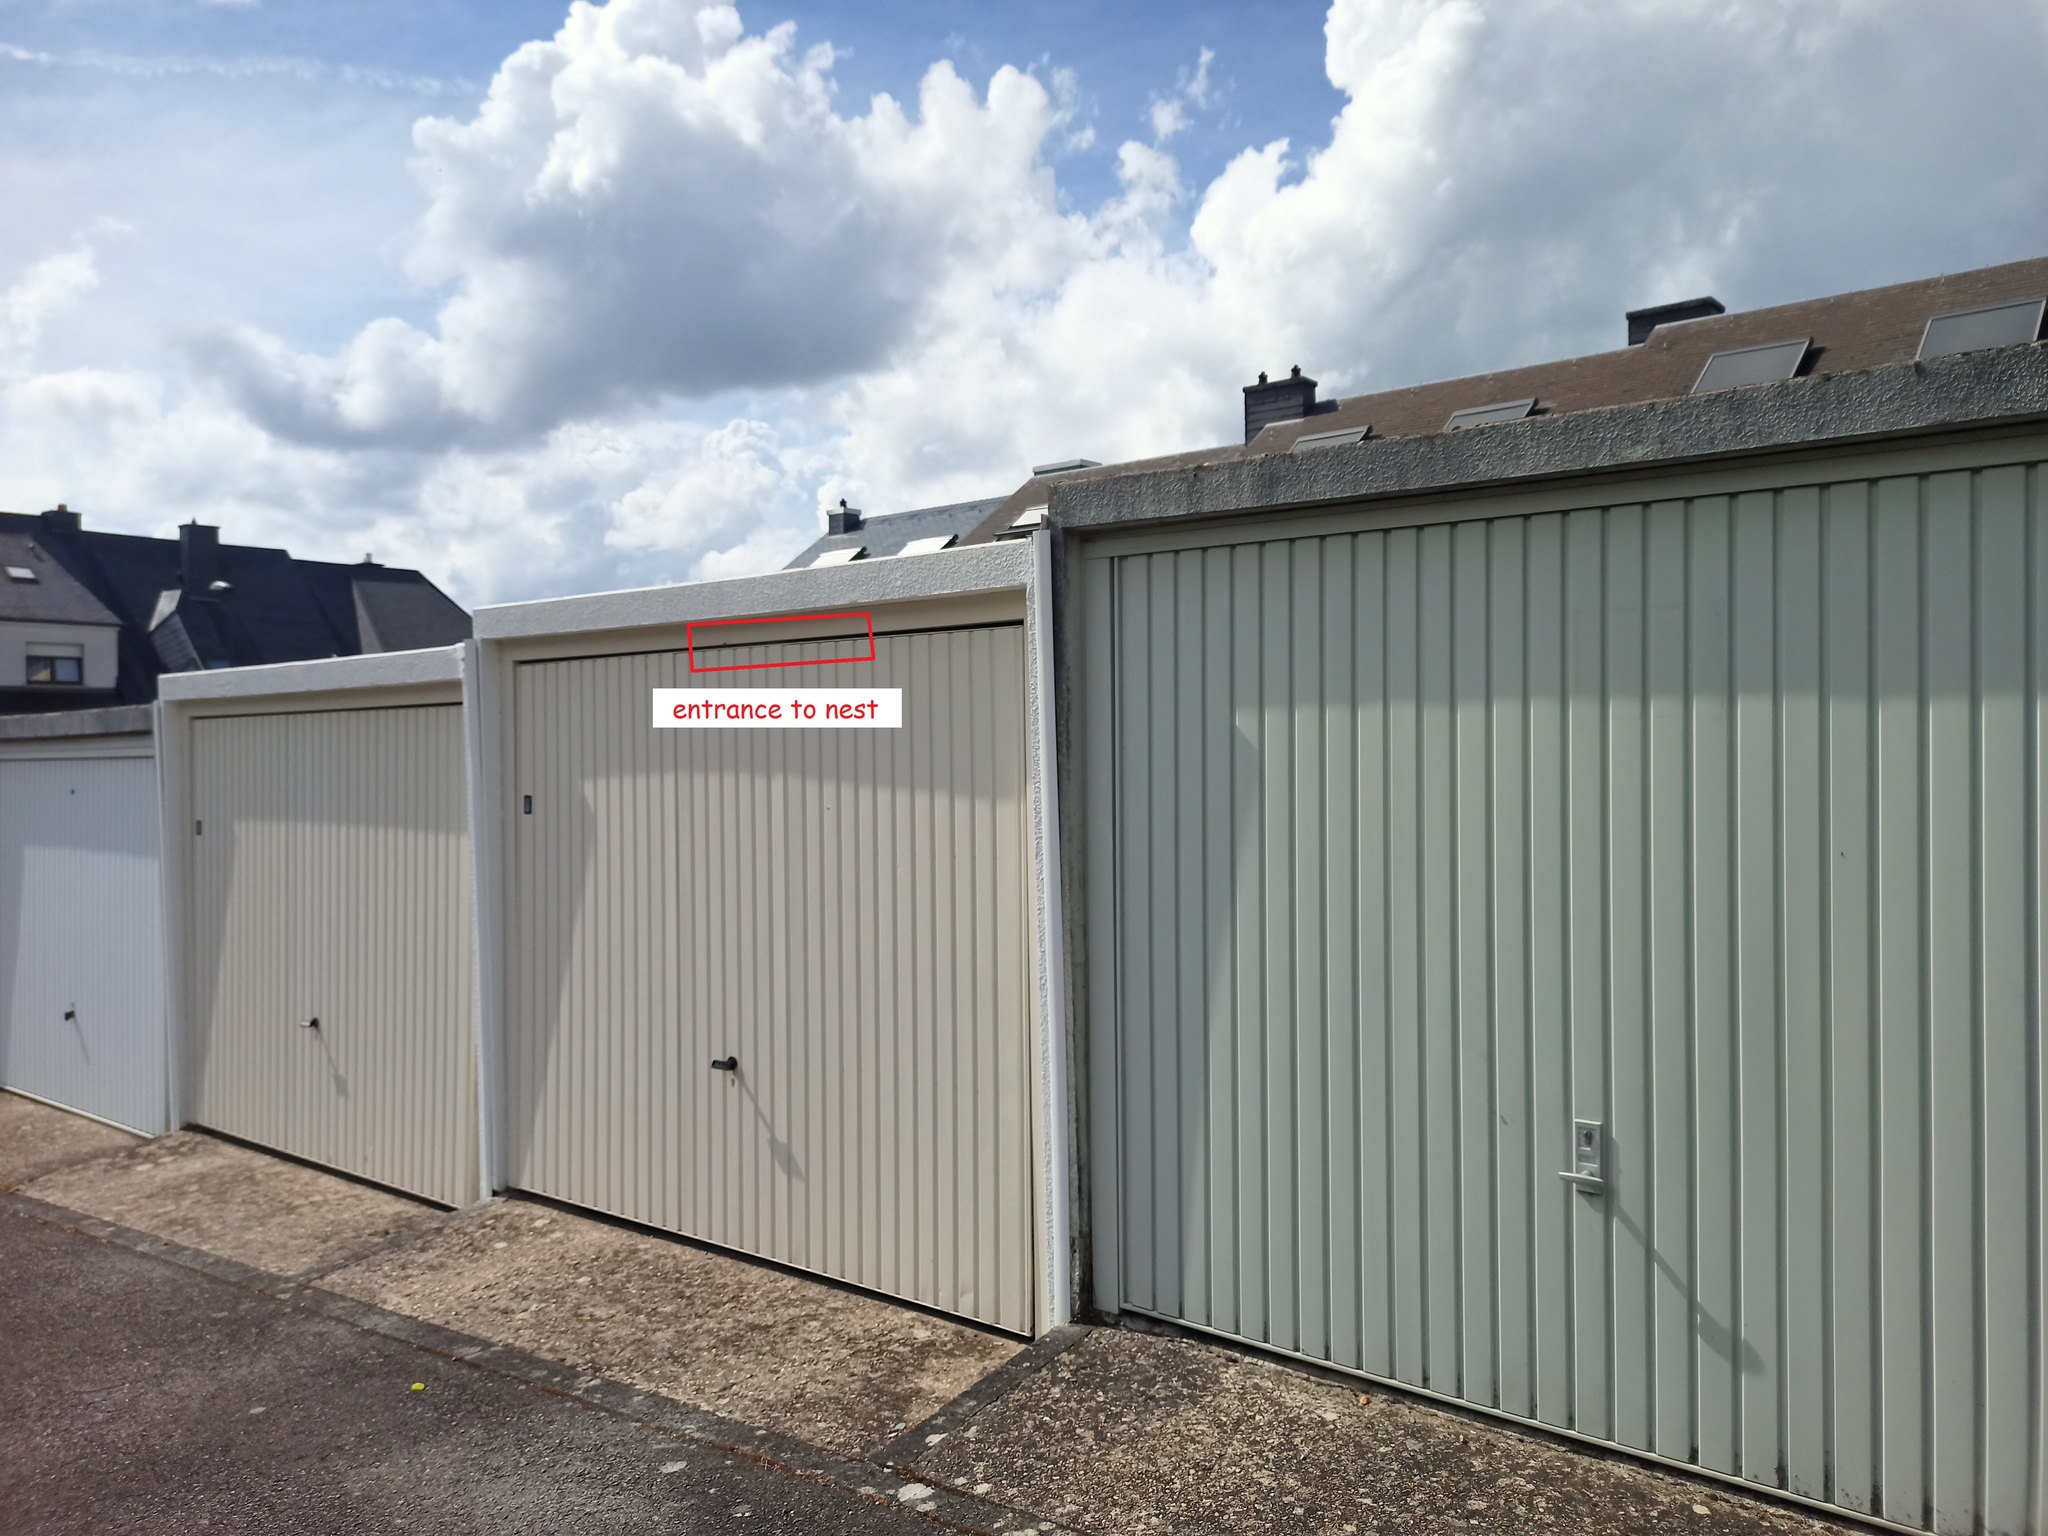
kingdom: Animalia
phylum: Arthropoda
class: Insecta
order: Hymenoptera
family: Vespidae
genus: Dolichovespula
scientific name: Dolichovespula saxonica
